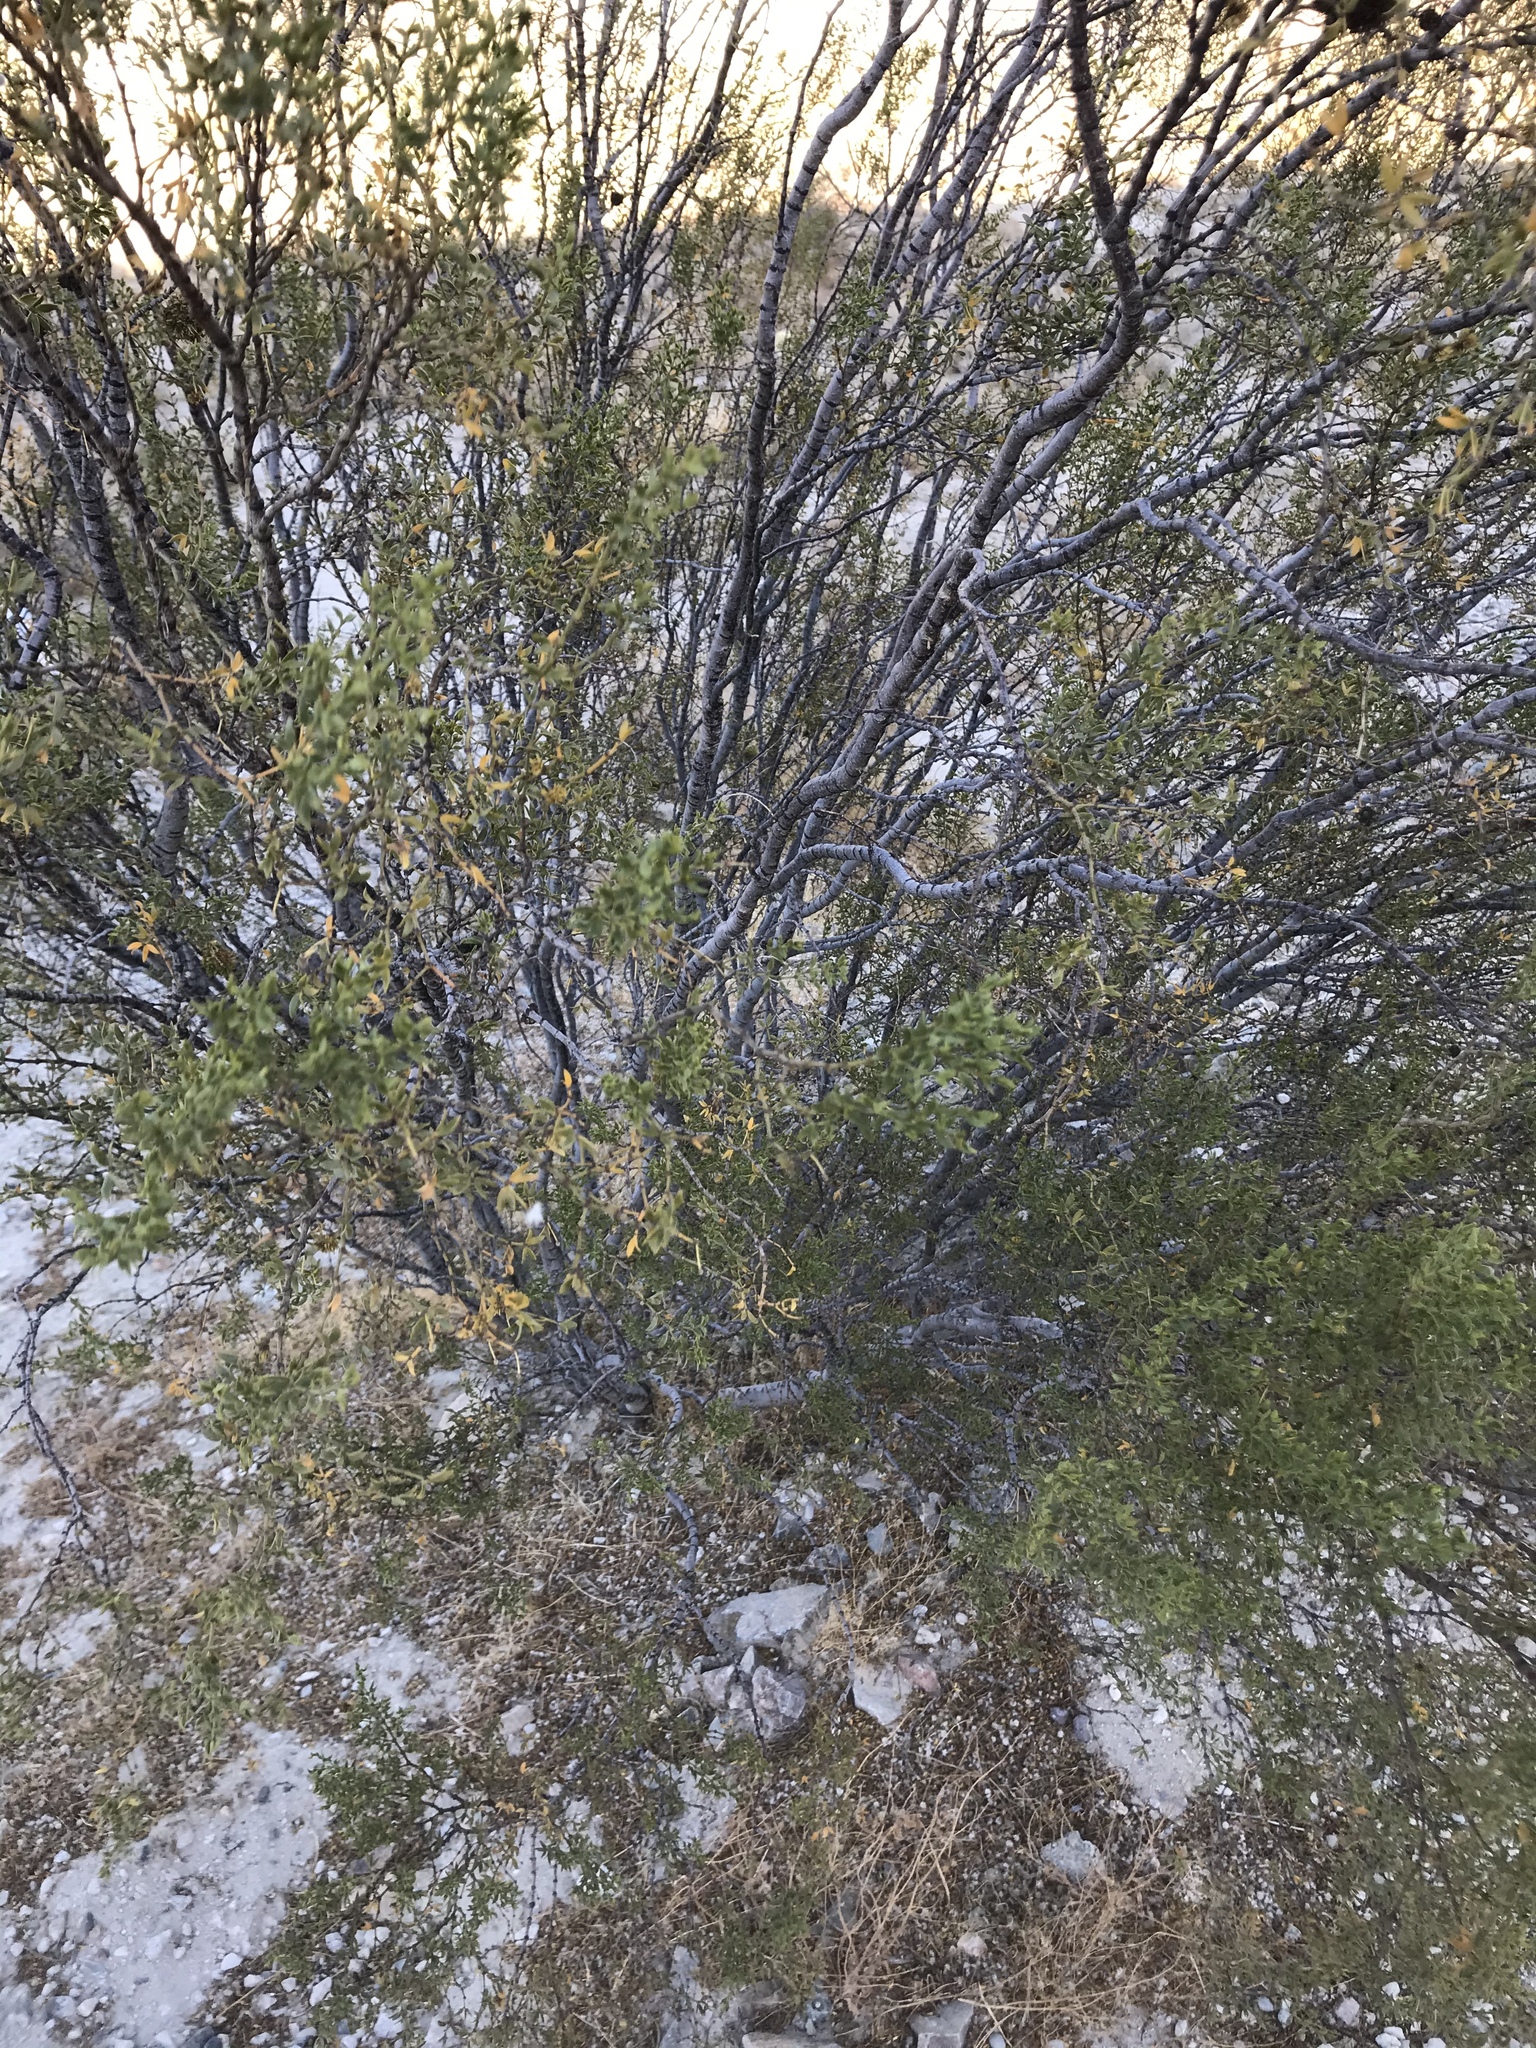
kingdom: Plantae
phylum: Tracheophyta
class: Magnoliopsida
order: Zygophyllales
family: Zygophyllaceae
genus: Larrea
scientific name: Larrea tridentata
